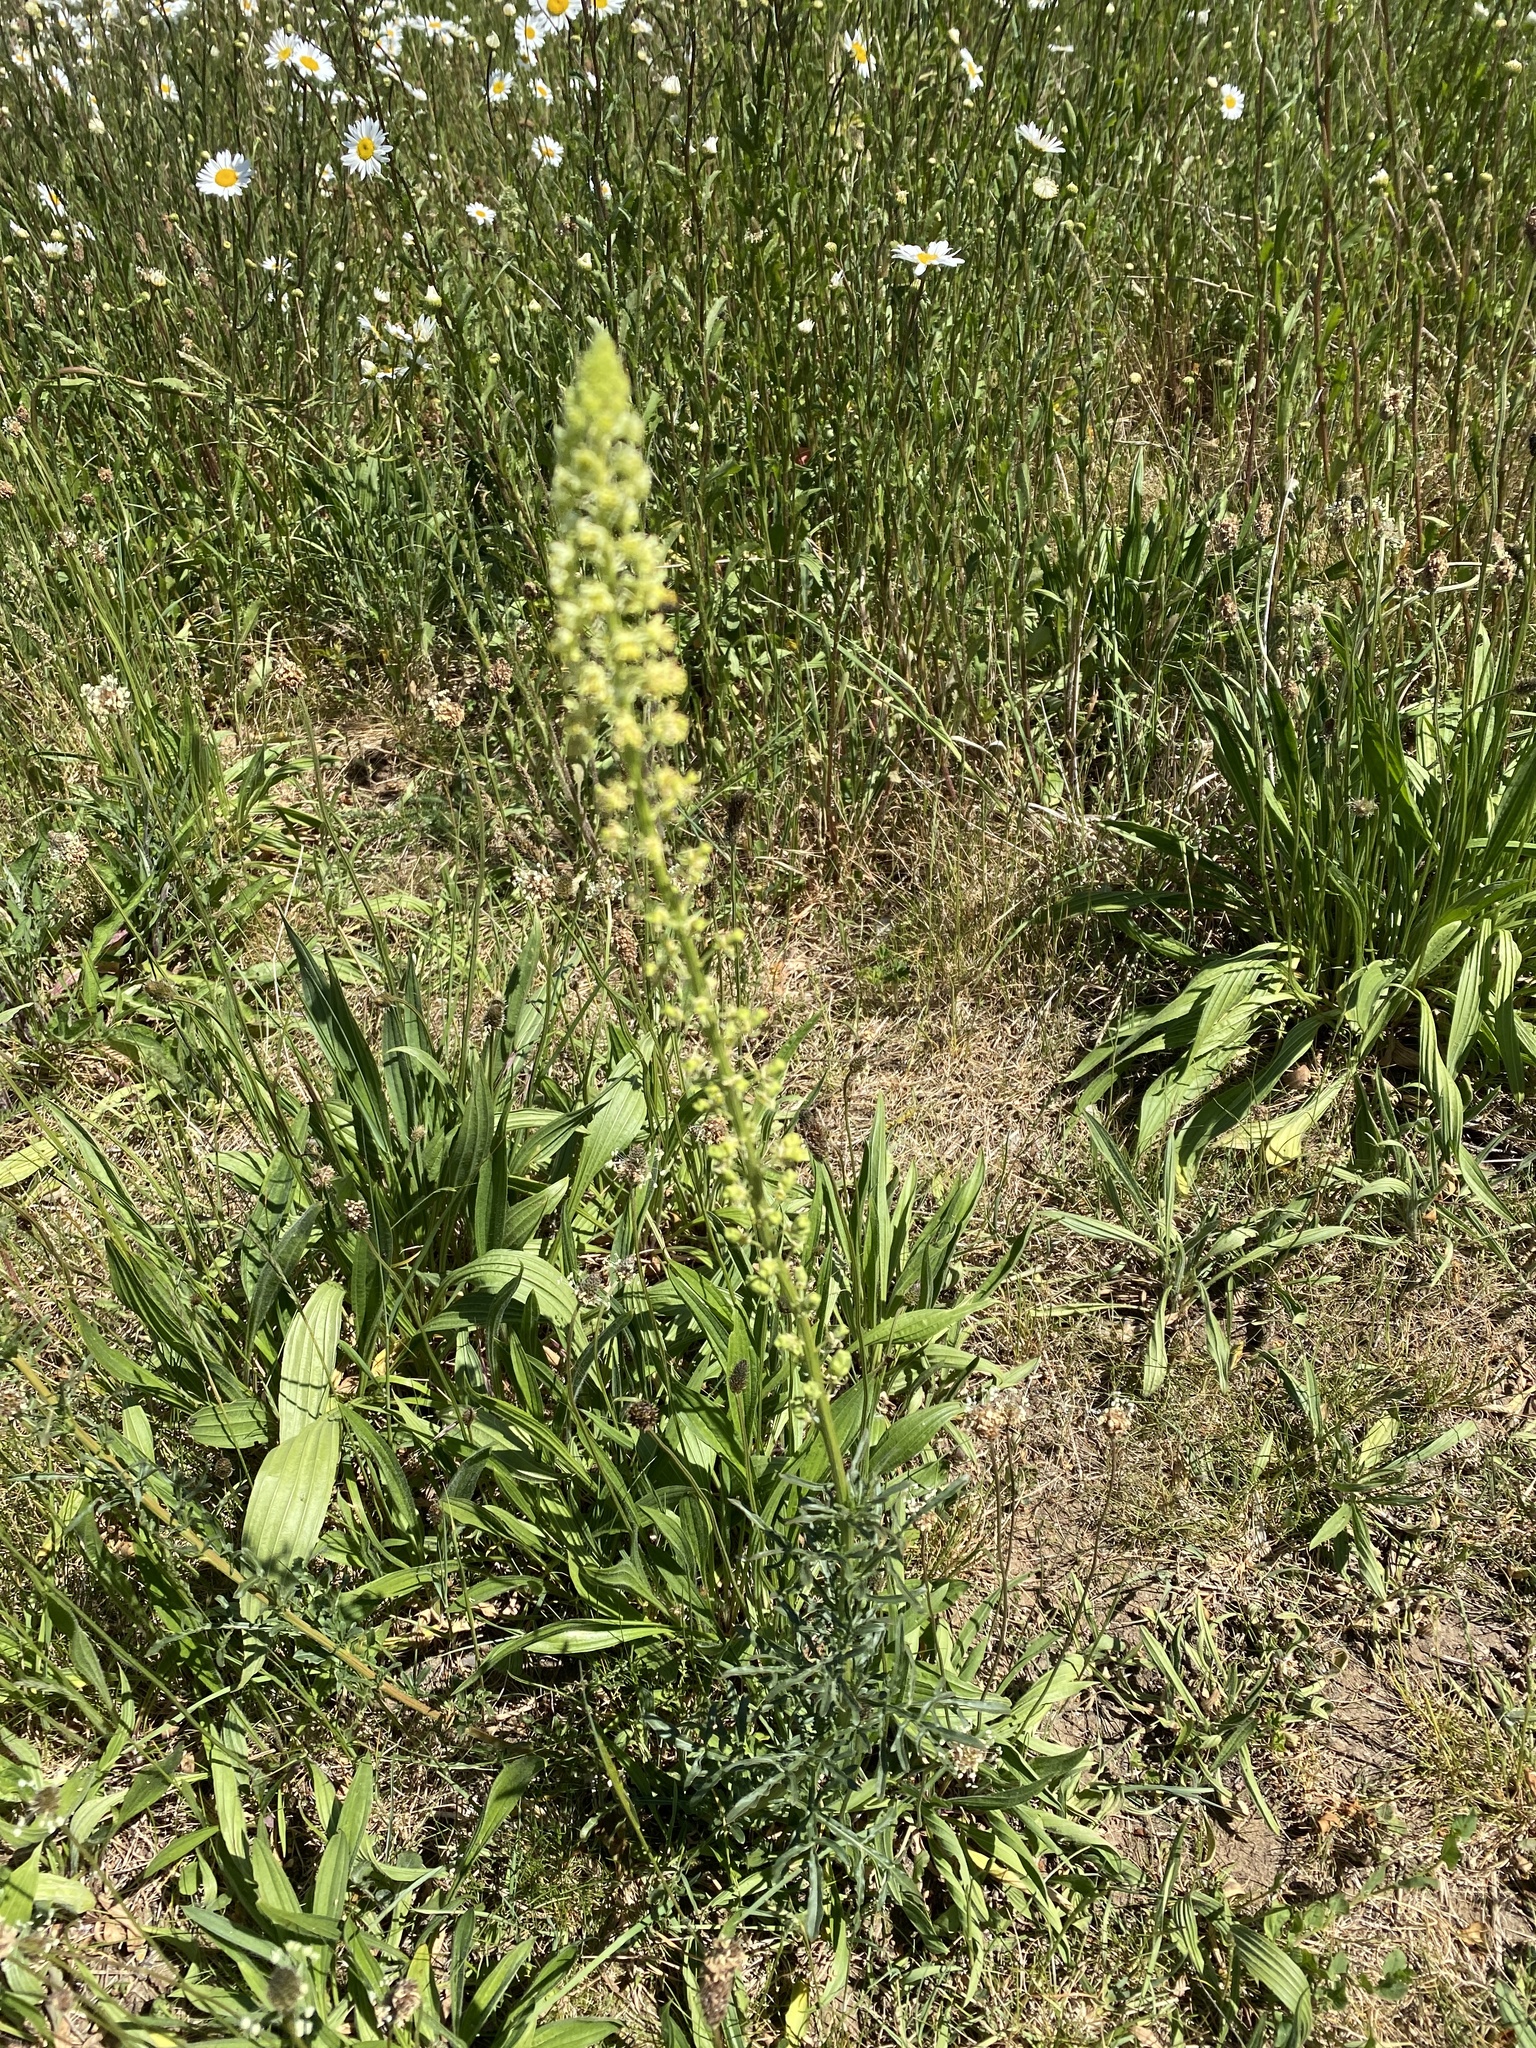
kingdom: Plantae
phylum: Tracheophyta
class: Magnoliopsida
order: Brassicales
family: Resedaceae
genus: Reseda
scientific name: Reseda lutea
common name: Wild mignonette
